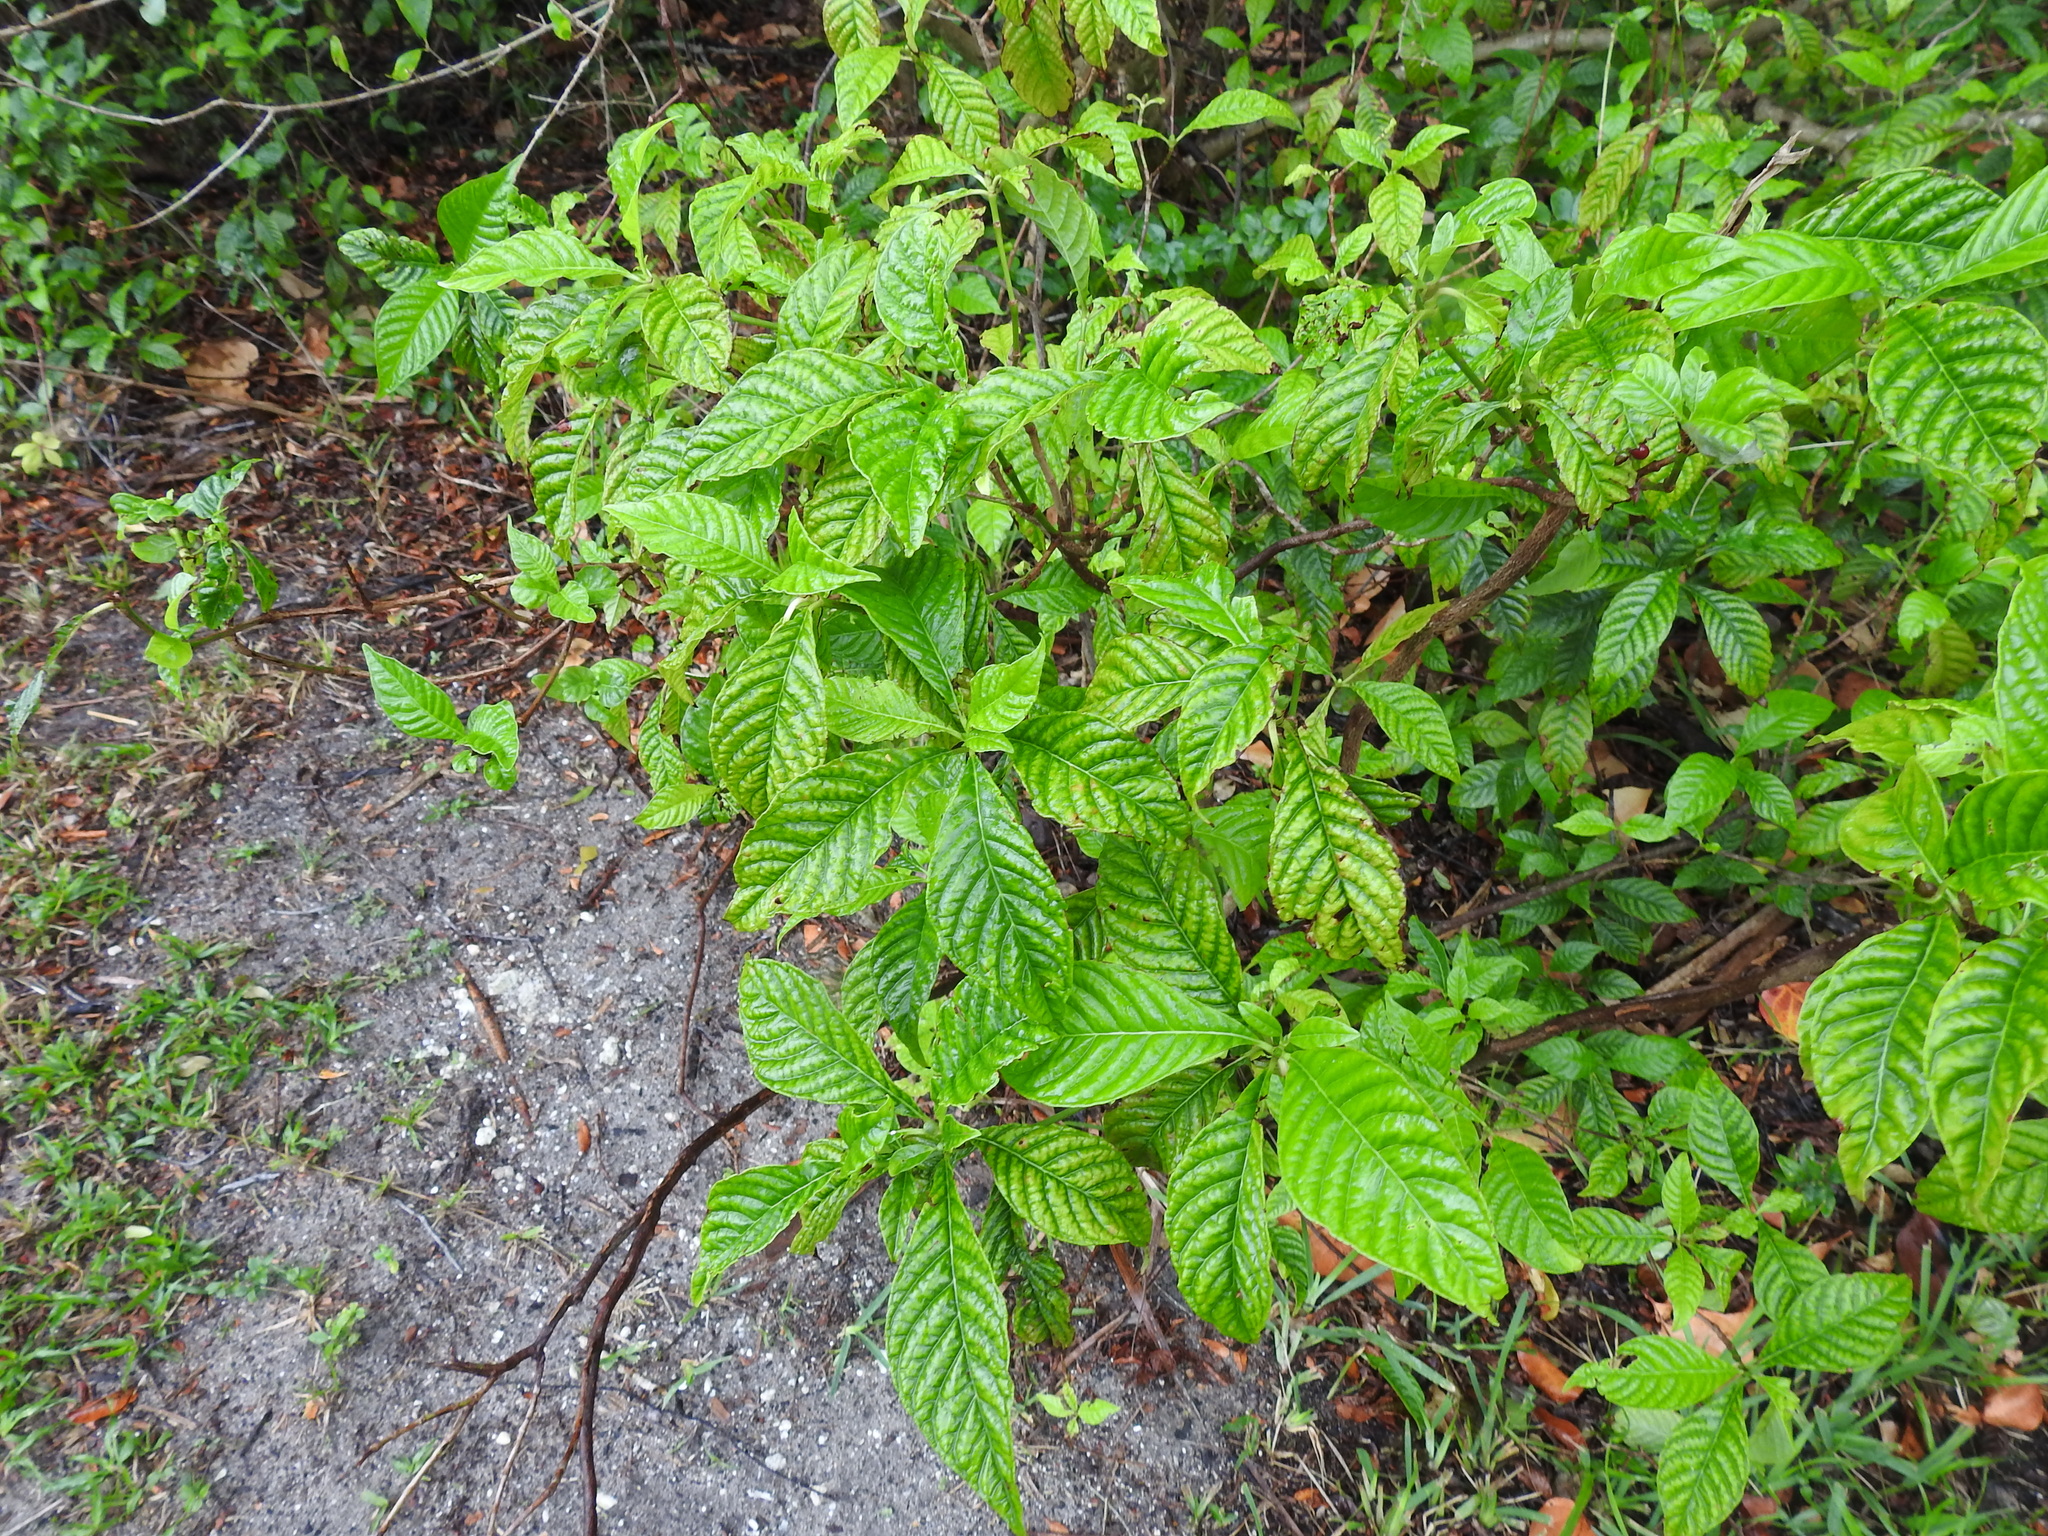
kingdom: Plantae
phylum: Tracheophyta
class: Magnoliopsida
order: Gentianales
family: Rubiaceae
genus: Psychotria
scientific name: Psychotria nervosa
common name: Bastard cankerberry
